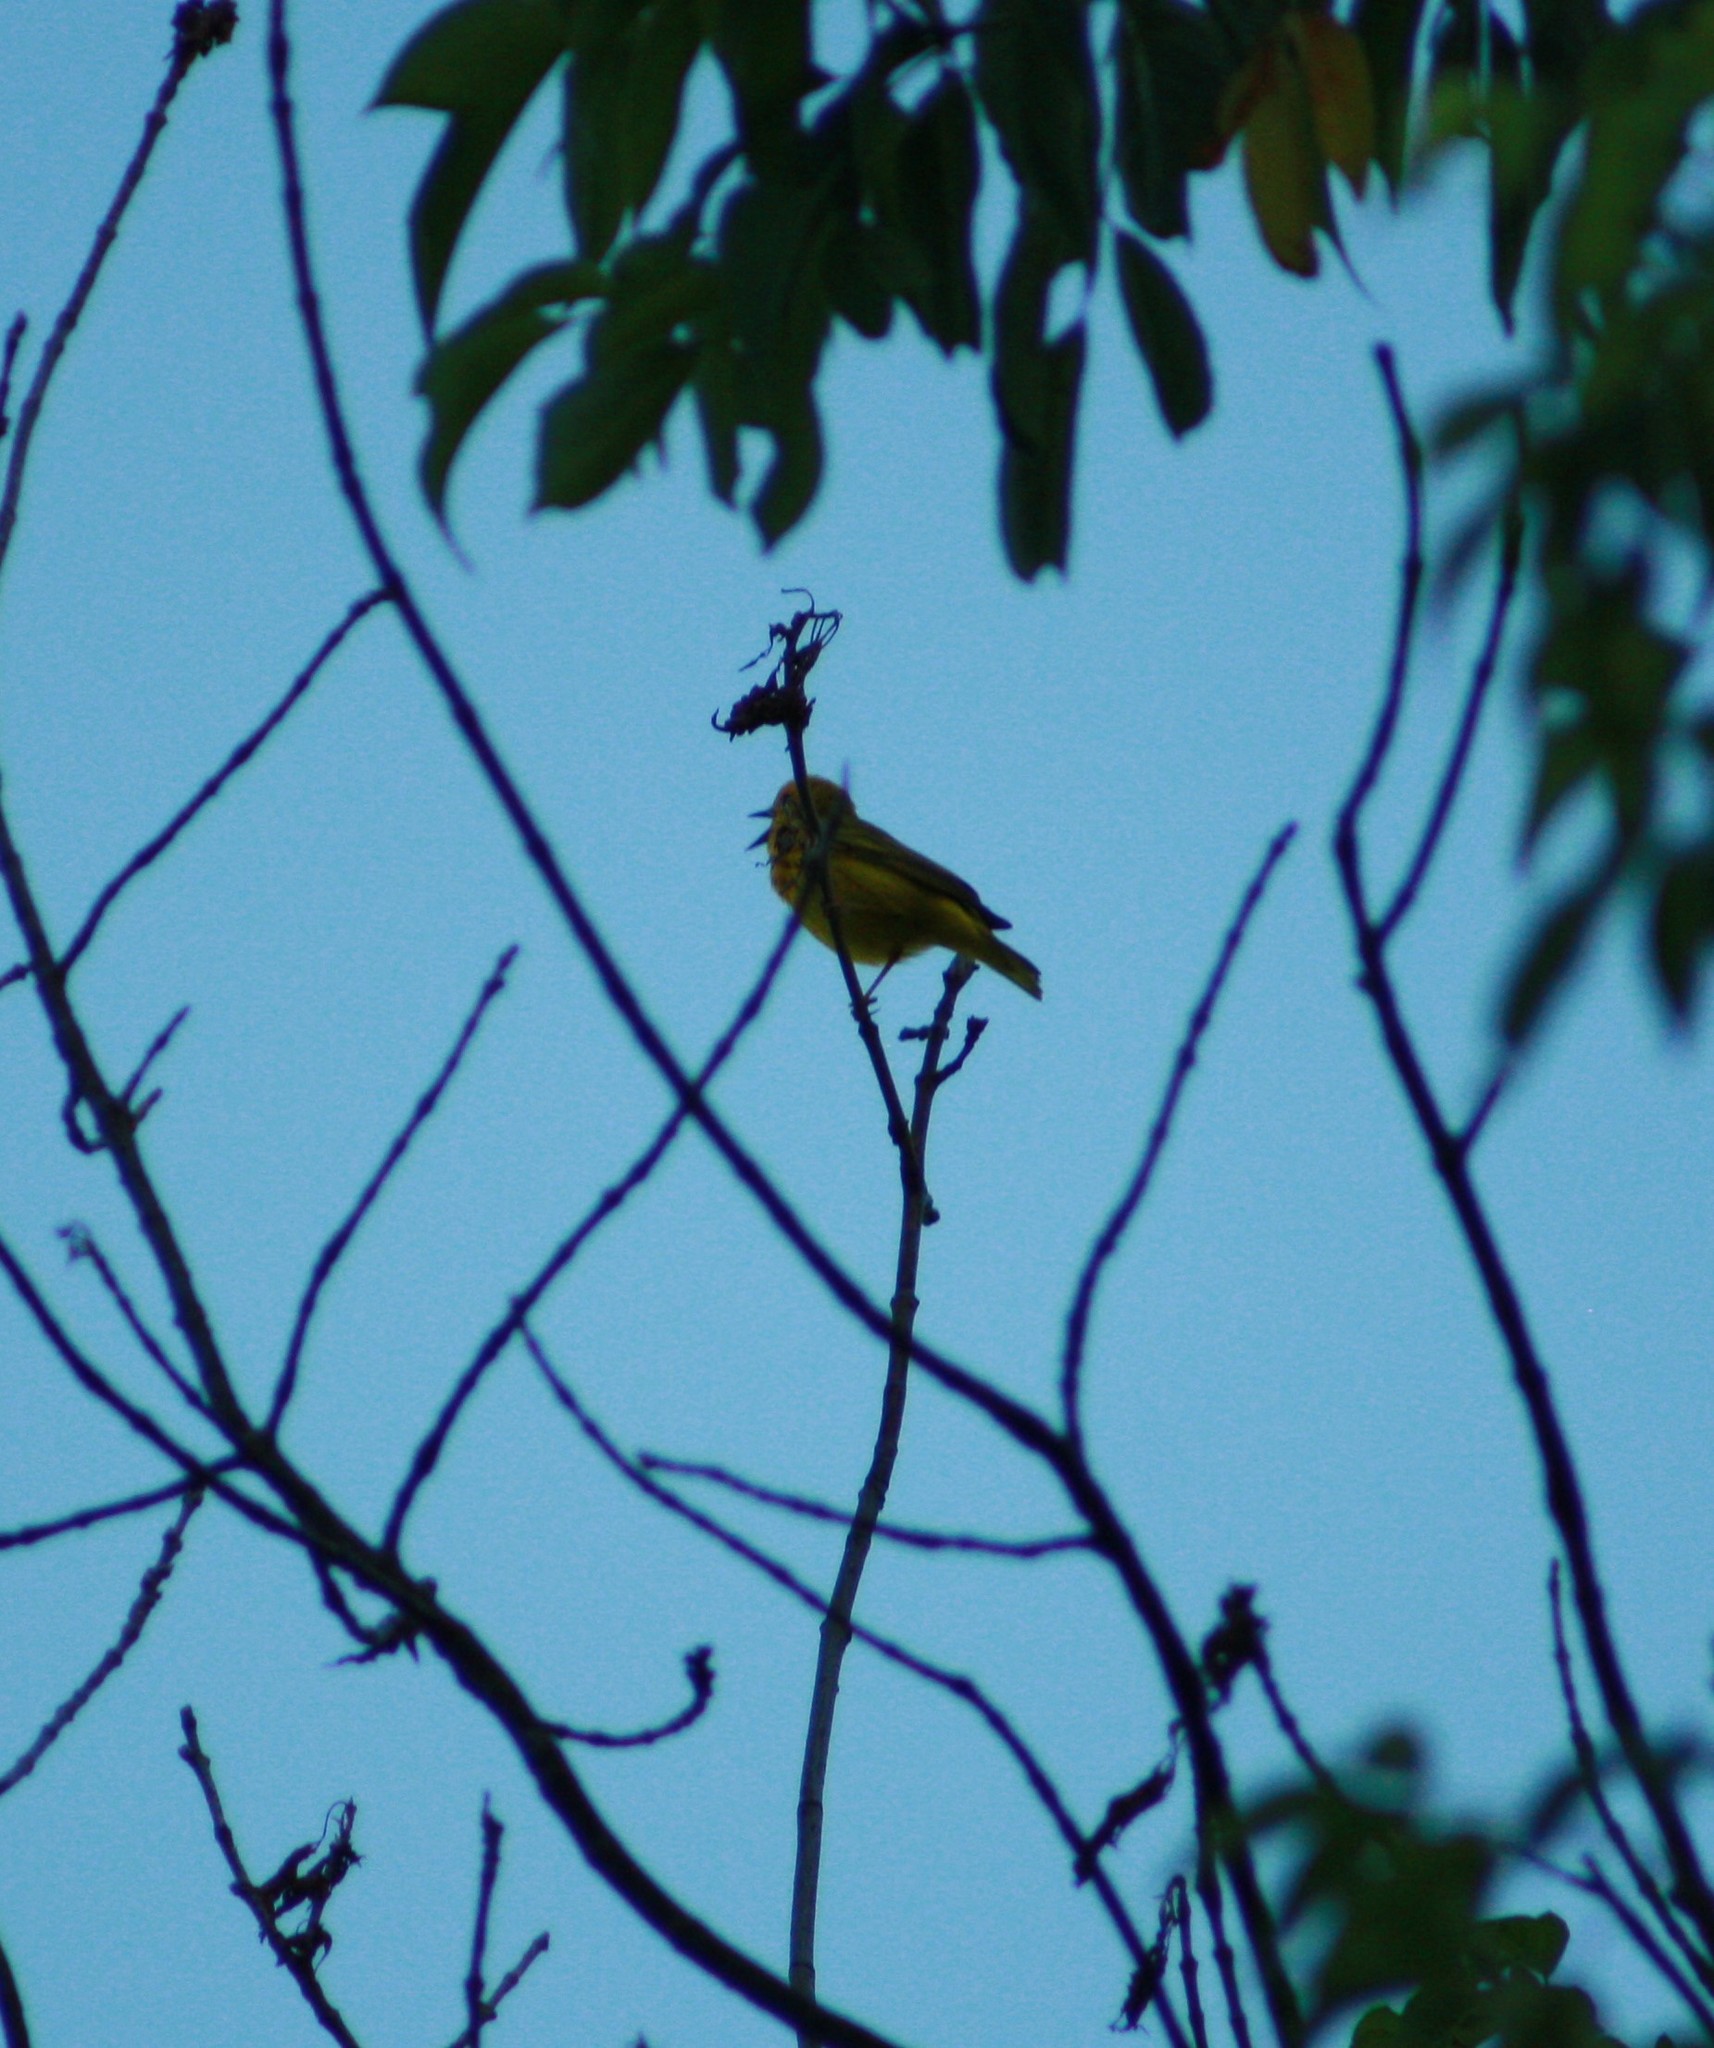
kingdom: Animalia
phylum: Chordata
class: Aves
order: Passeriformes
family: Parulidae
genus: Setophaga
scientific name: Setophaga petechia
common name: Yellow warbler
